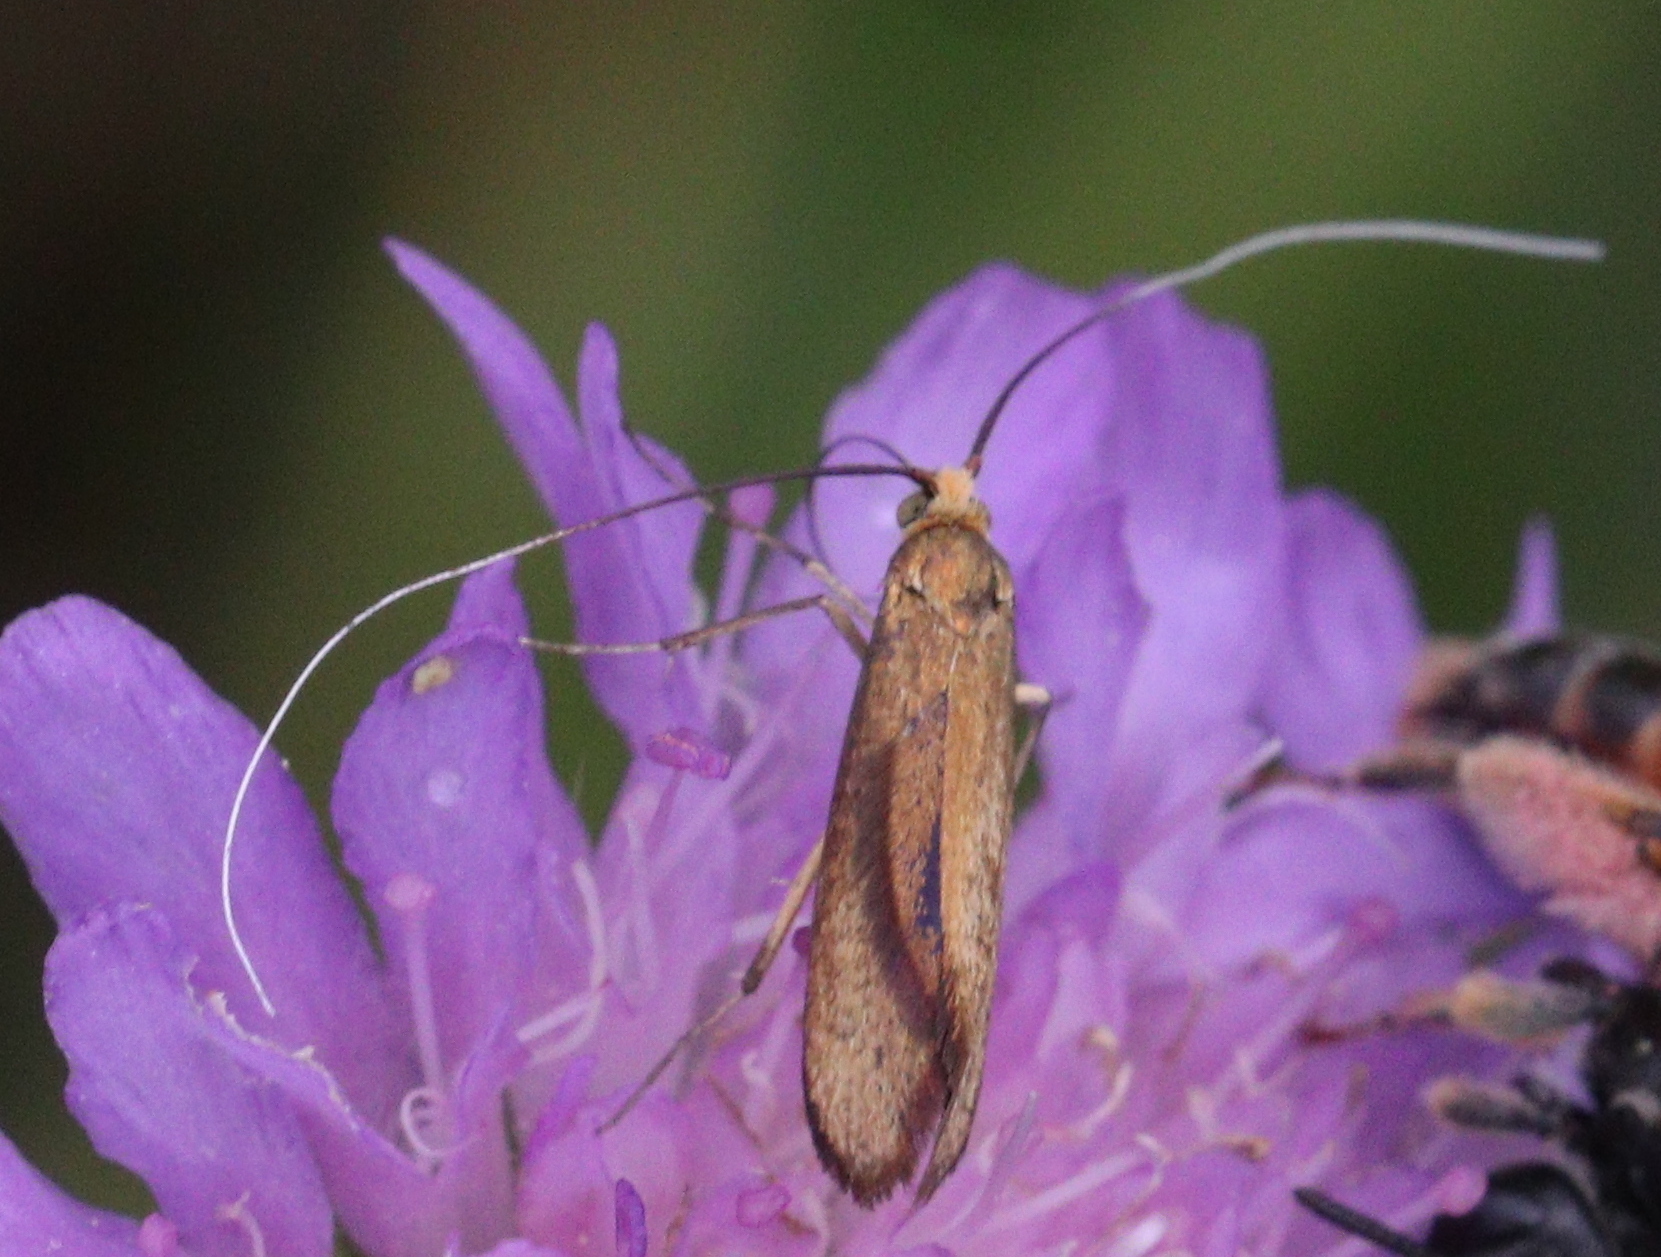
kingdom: Animalia
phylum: Arthropoda
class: Insecta
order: Lepidoptera
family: Adelidae
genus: Nemophora
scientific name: Nemophora metallica
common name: Brassy long-horn
